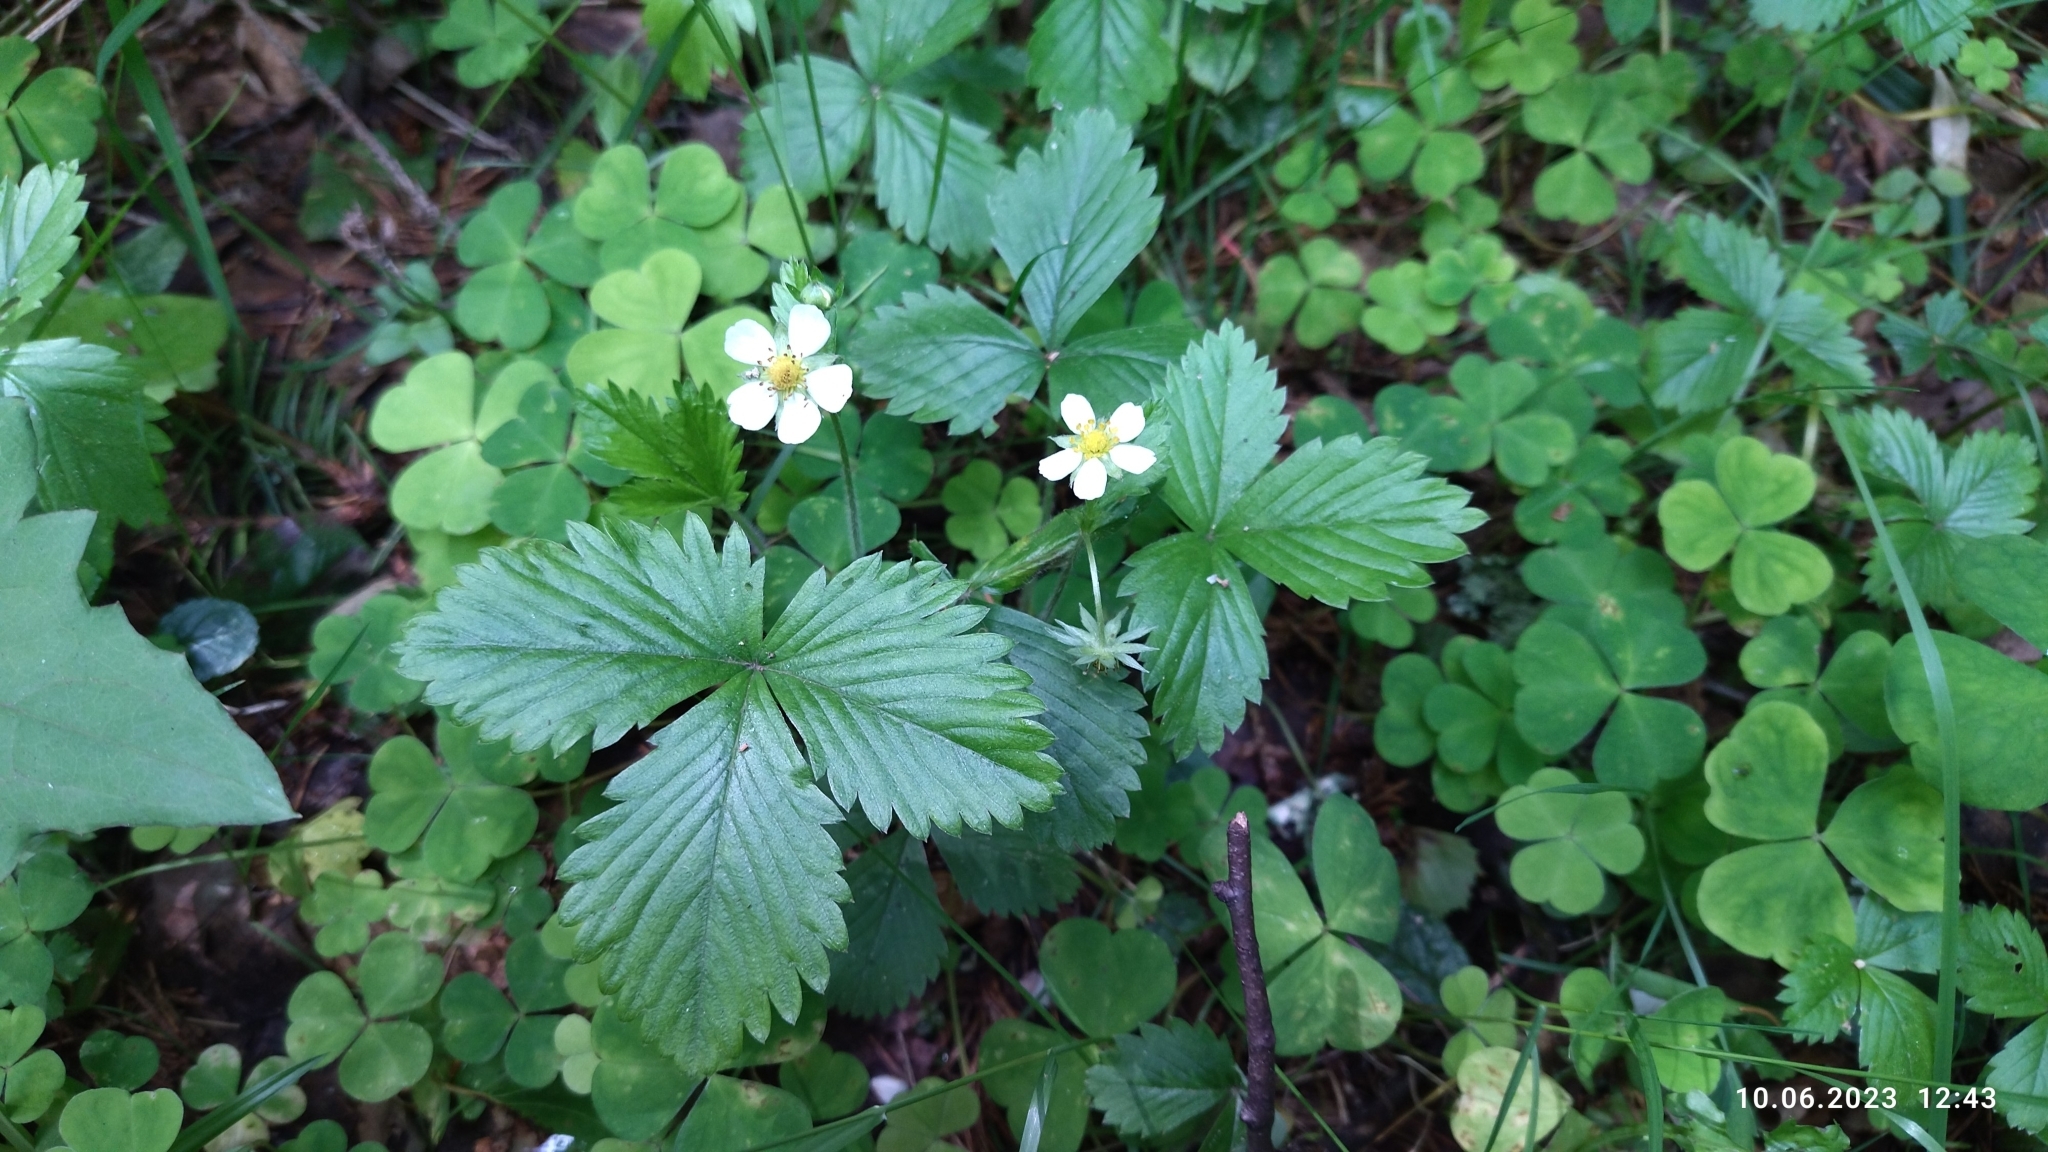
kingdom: Plantae
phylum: Tracheophyta
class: Magnoliopsida
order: Rosales
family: Rosaceae
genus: Fragaria
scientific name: Fragaria vesca
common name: Wild strawberry
